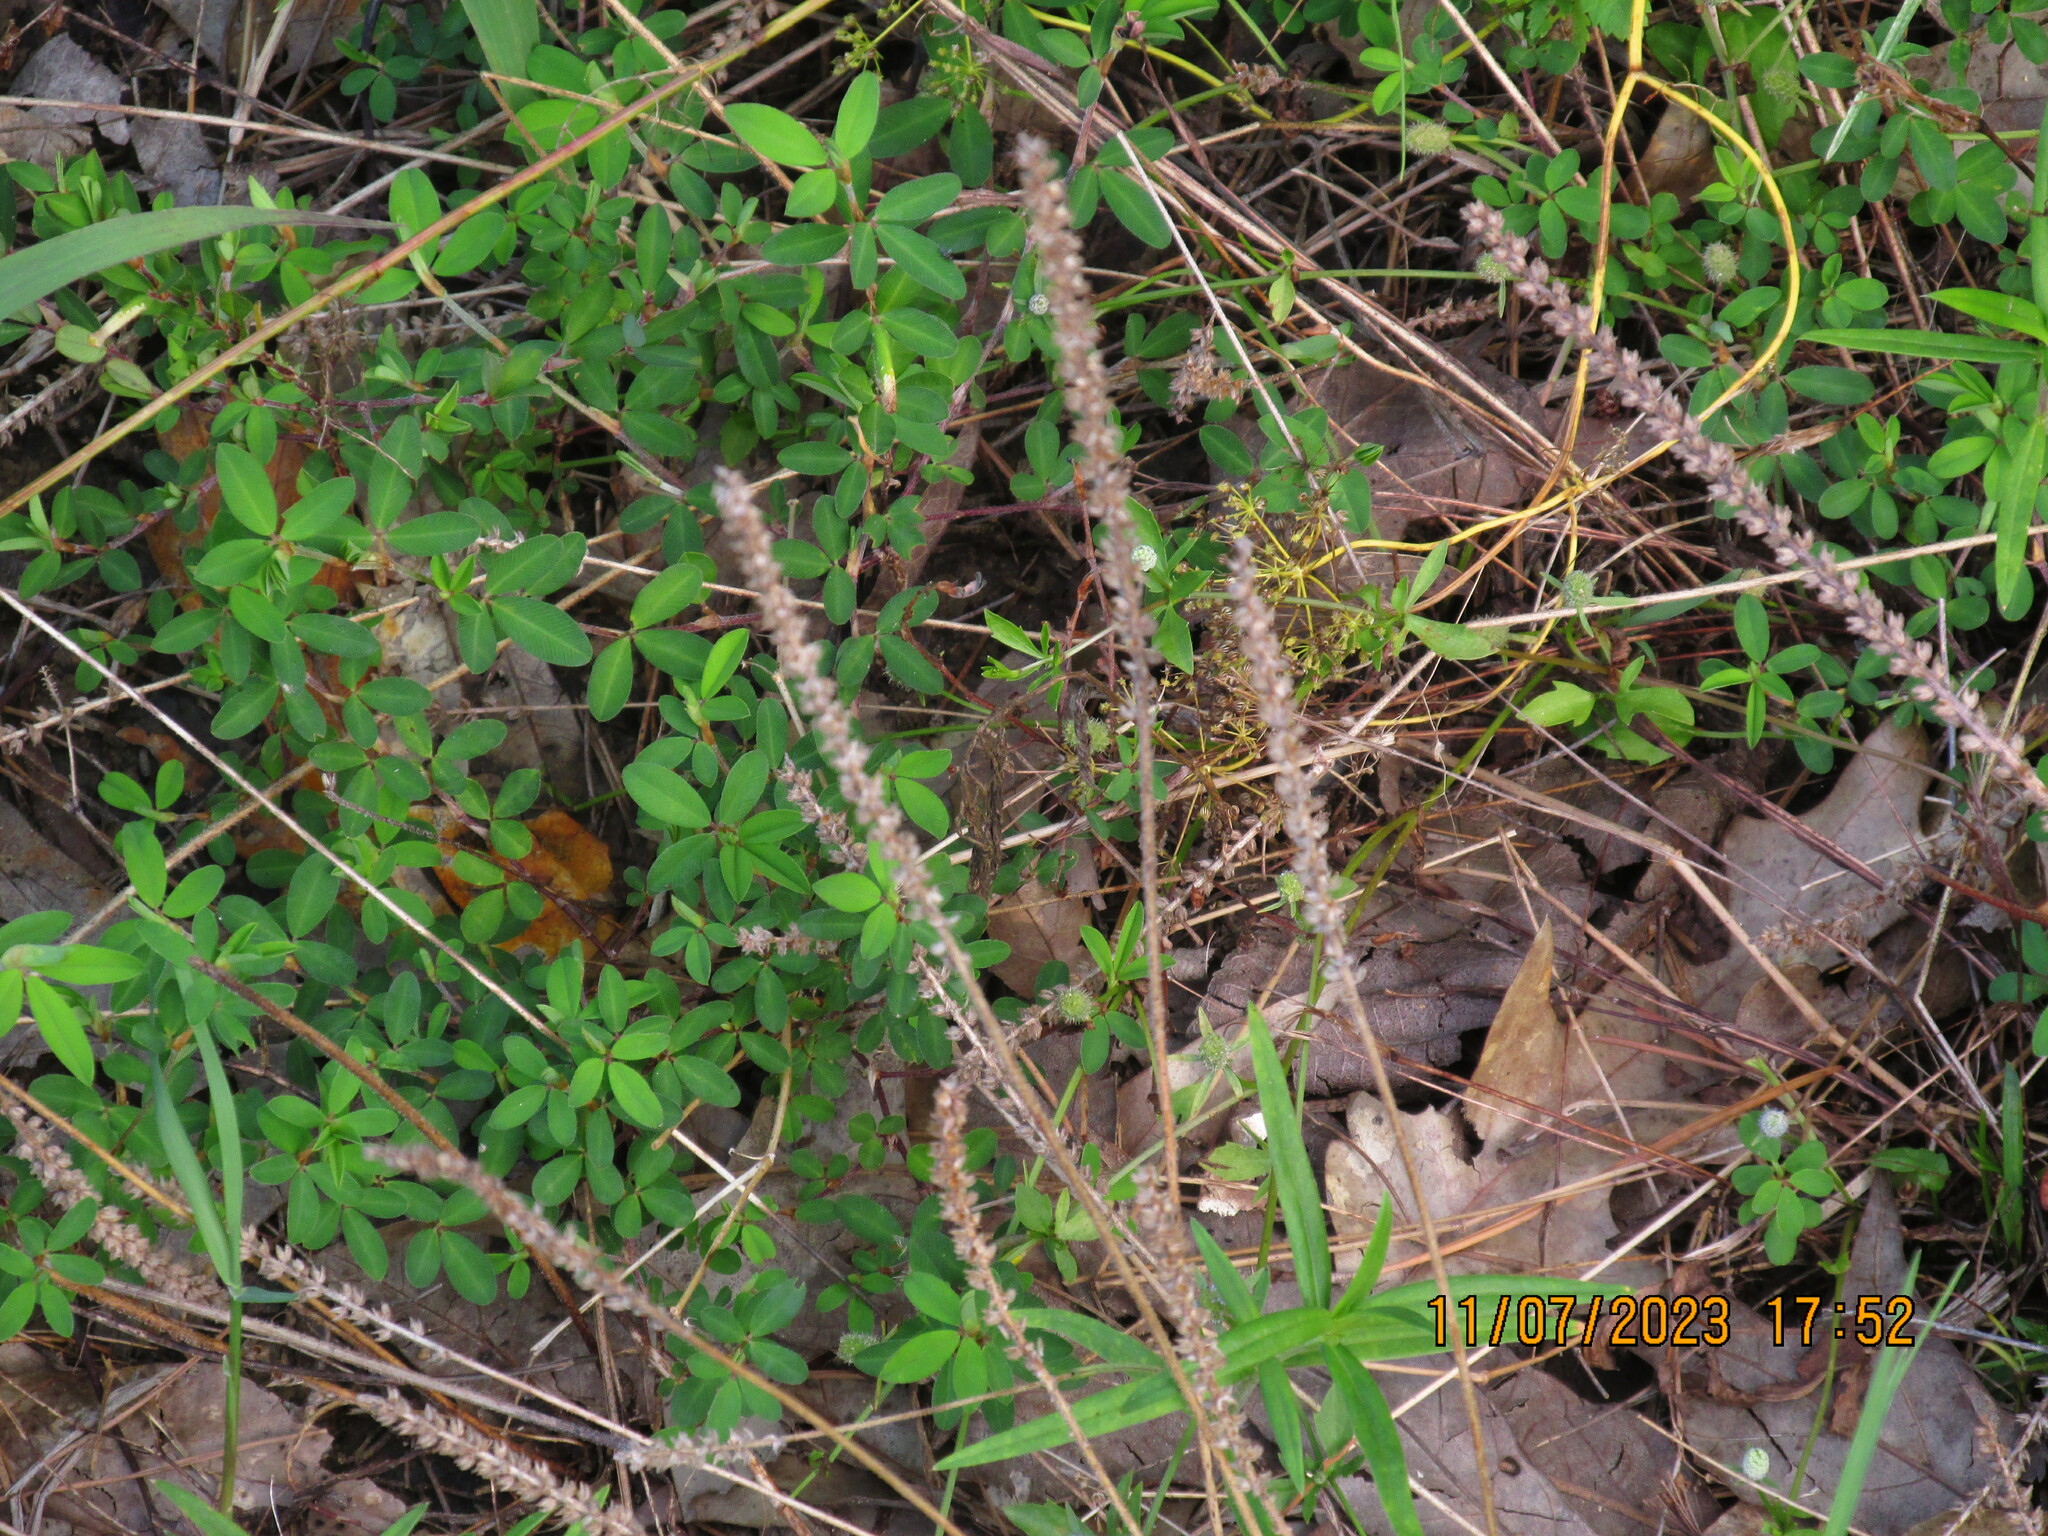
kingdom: Plantae
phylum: Tracheophyta
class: Magnoliopsida
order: Lamiales
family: Plantaginaceae
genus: Plantago
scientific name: Plantago virginica
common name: Hoary plantain
